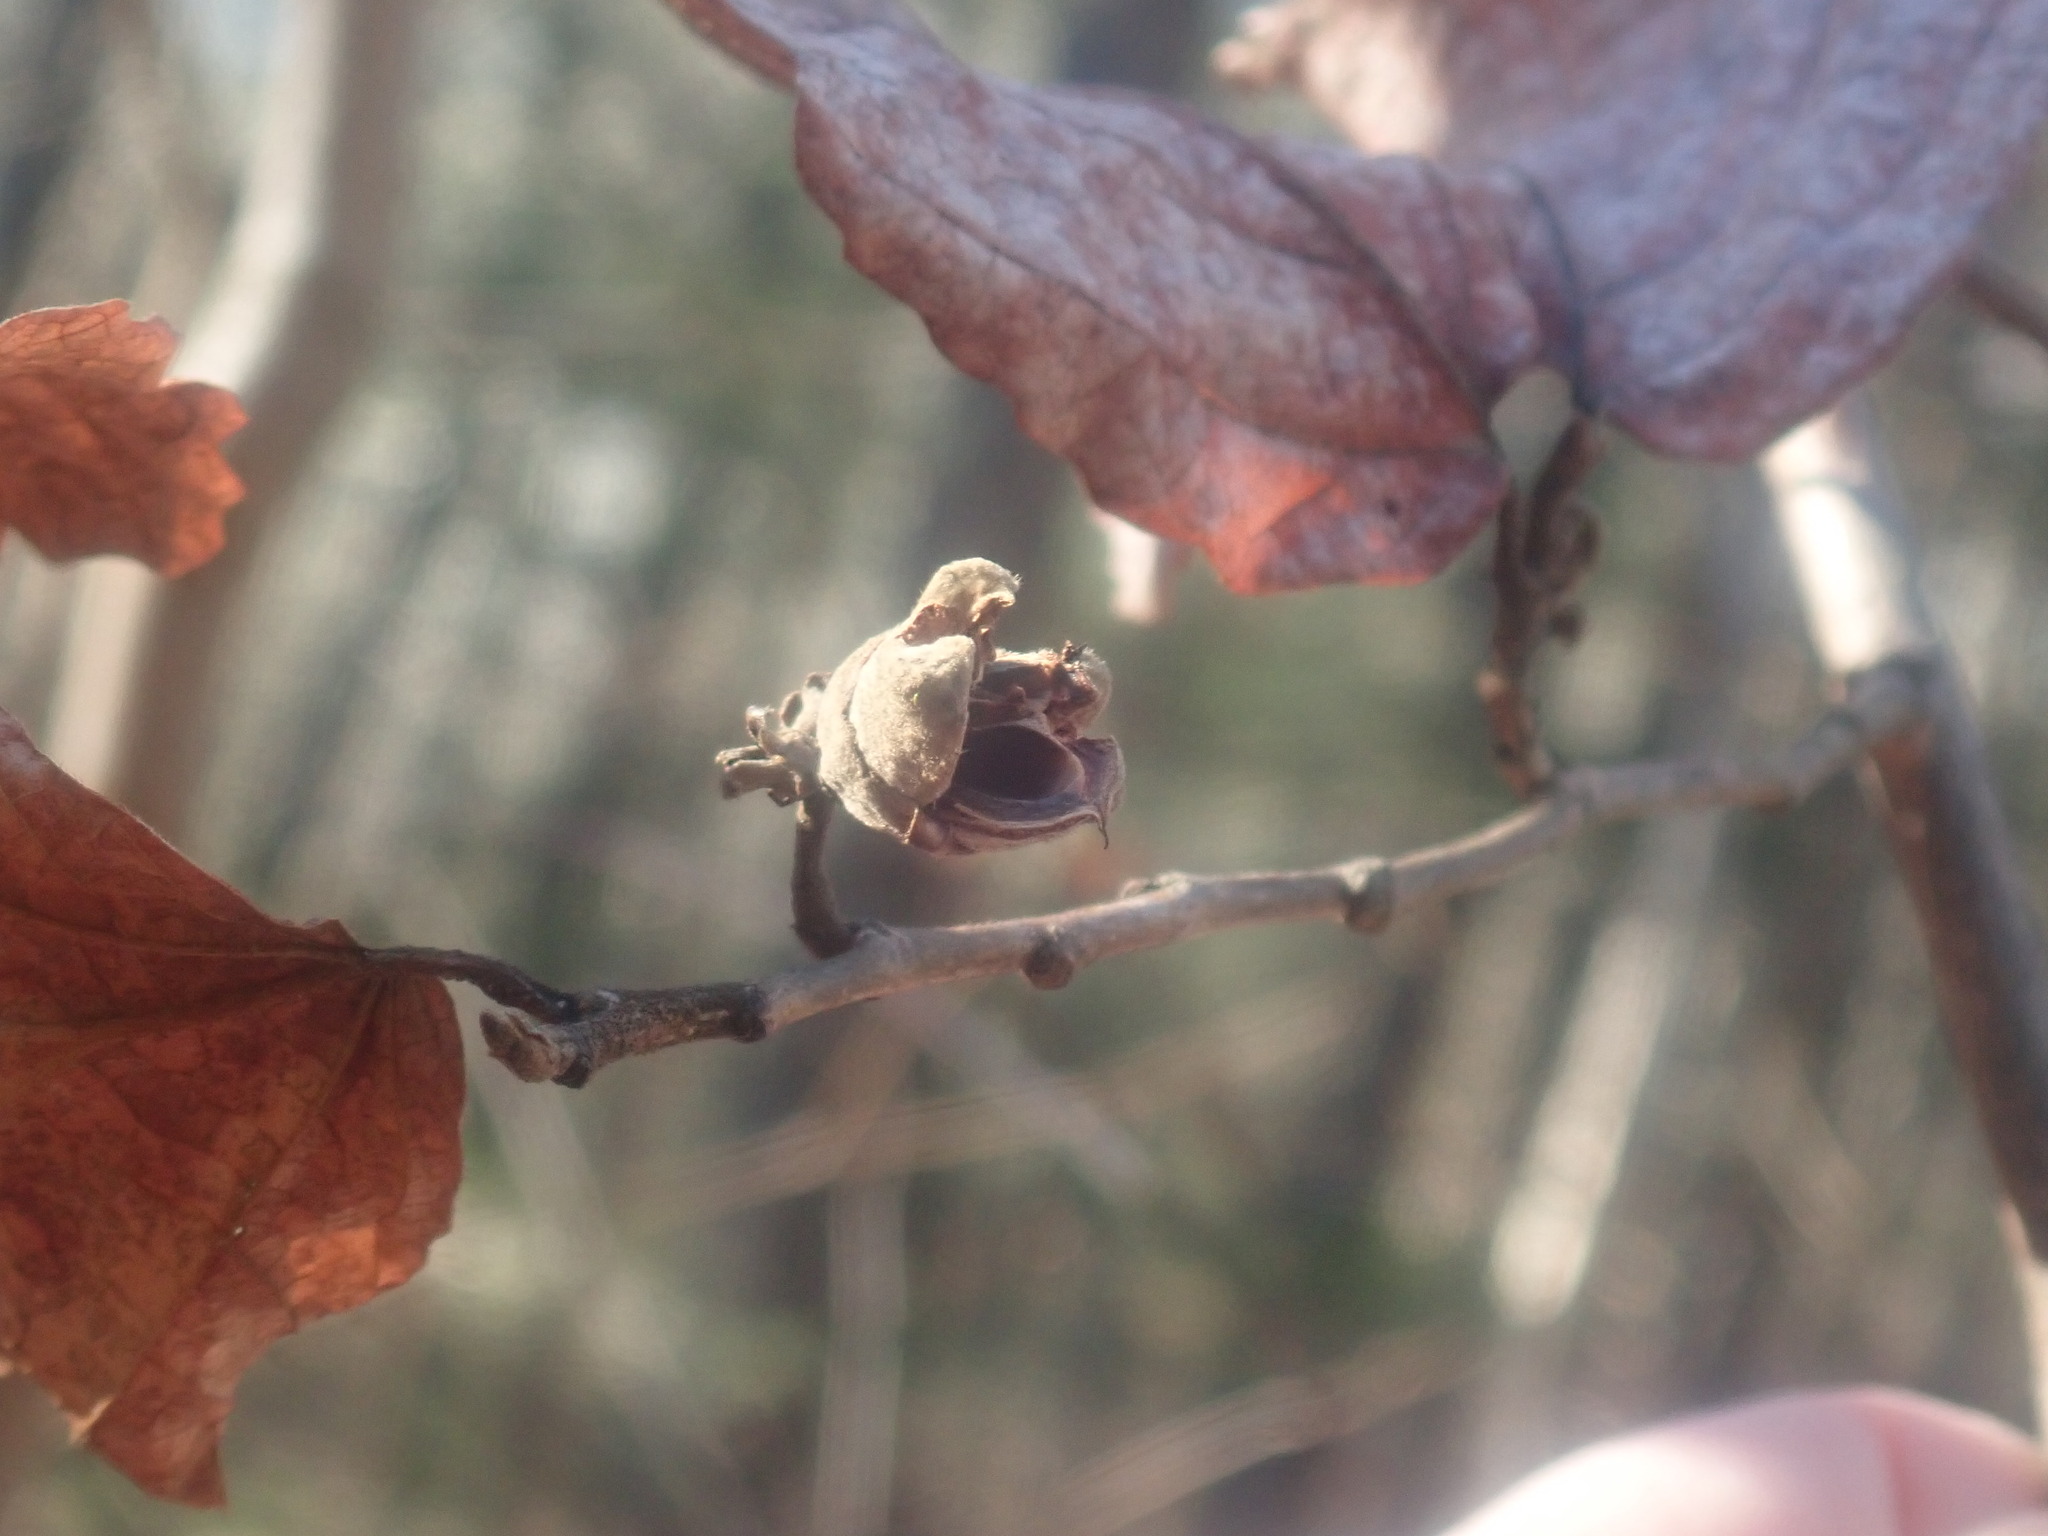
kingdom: Plantae
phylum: Tracheophyta
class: Magnoliopsida
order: Saxifragales
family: Hamamelidaceae
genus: Hamamelis
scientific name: Hamamelis virginiana
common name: Witch-hazel
